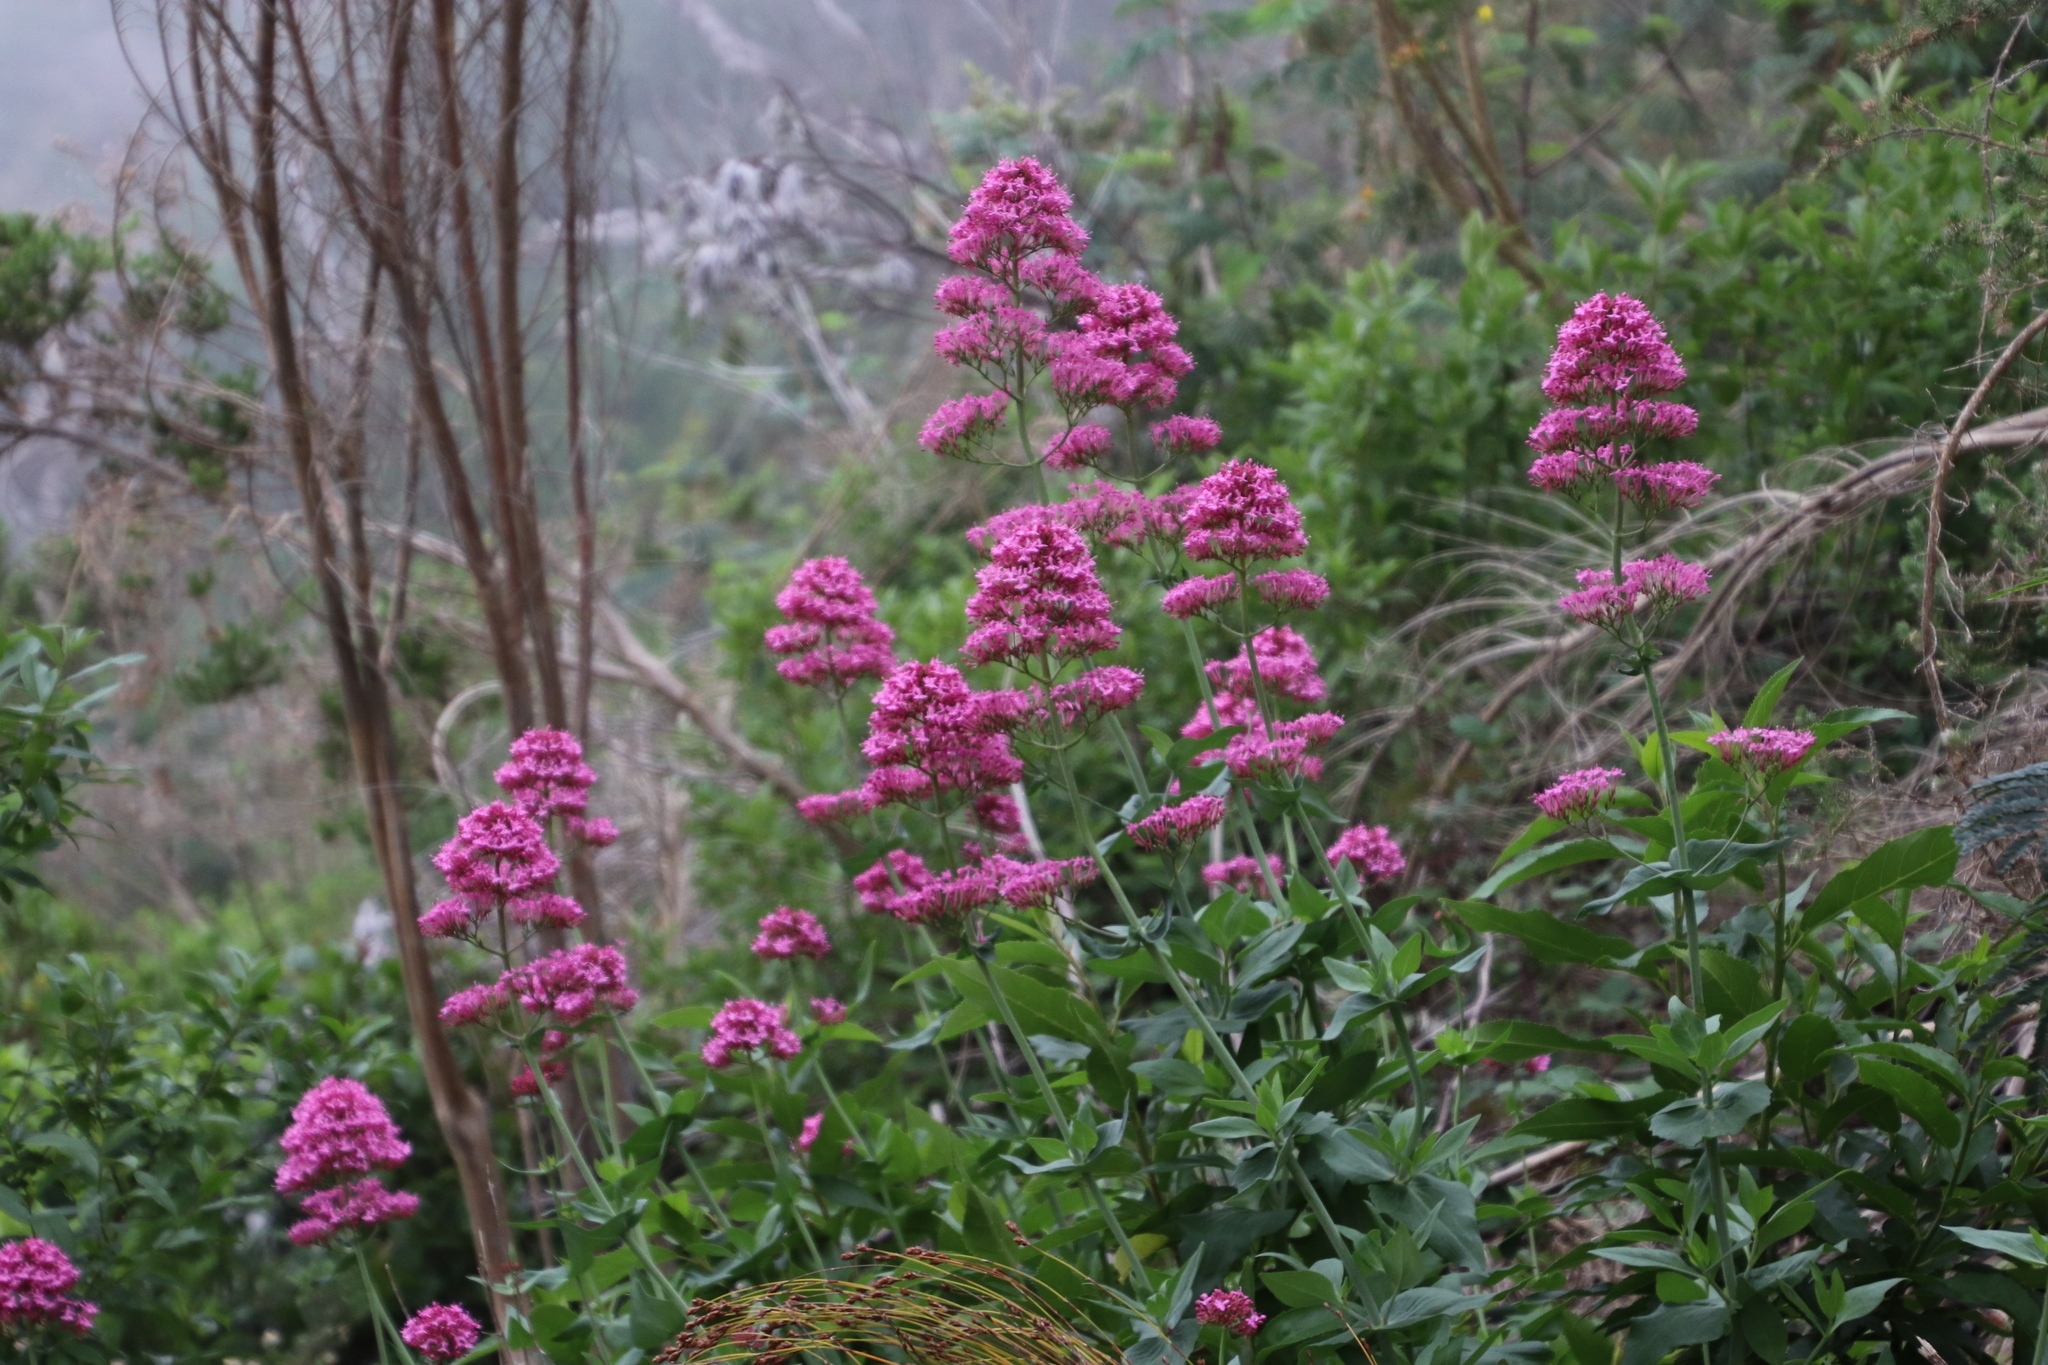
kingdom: Plantae
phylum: Tracheophyta
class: Magnoliopsida
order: Dipsacales
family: Caprifoliaceae
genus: Centranthus
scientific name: Centranthus ruber
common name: Red valerian
